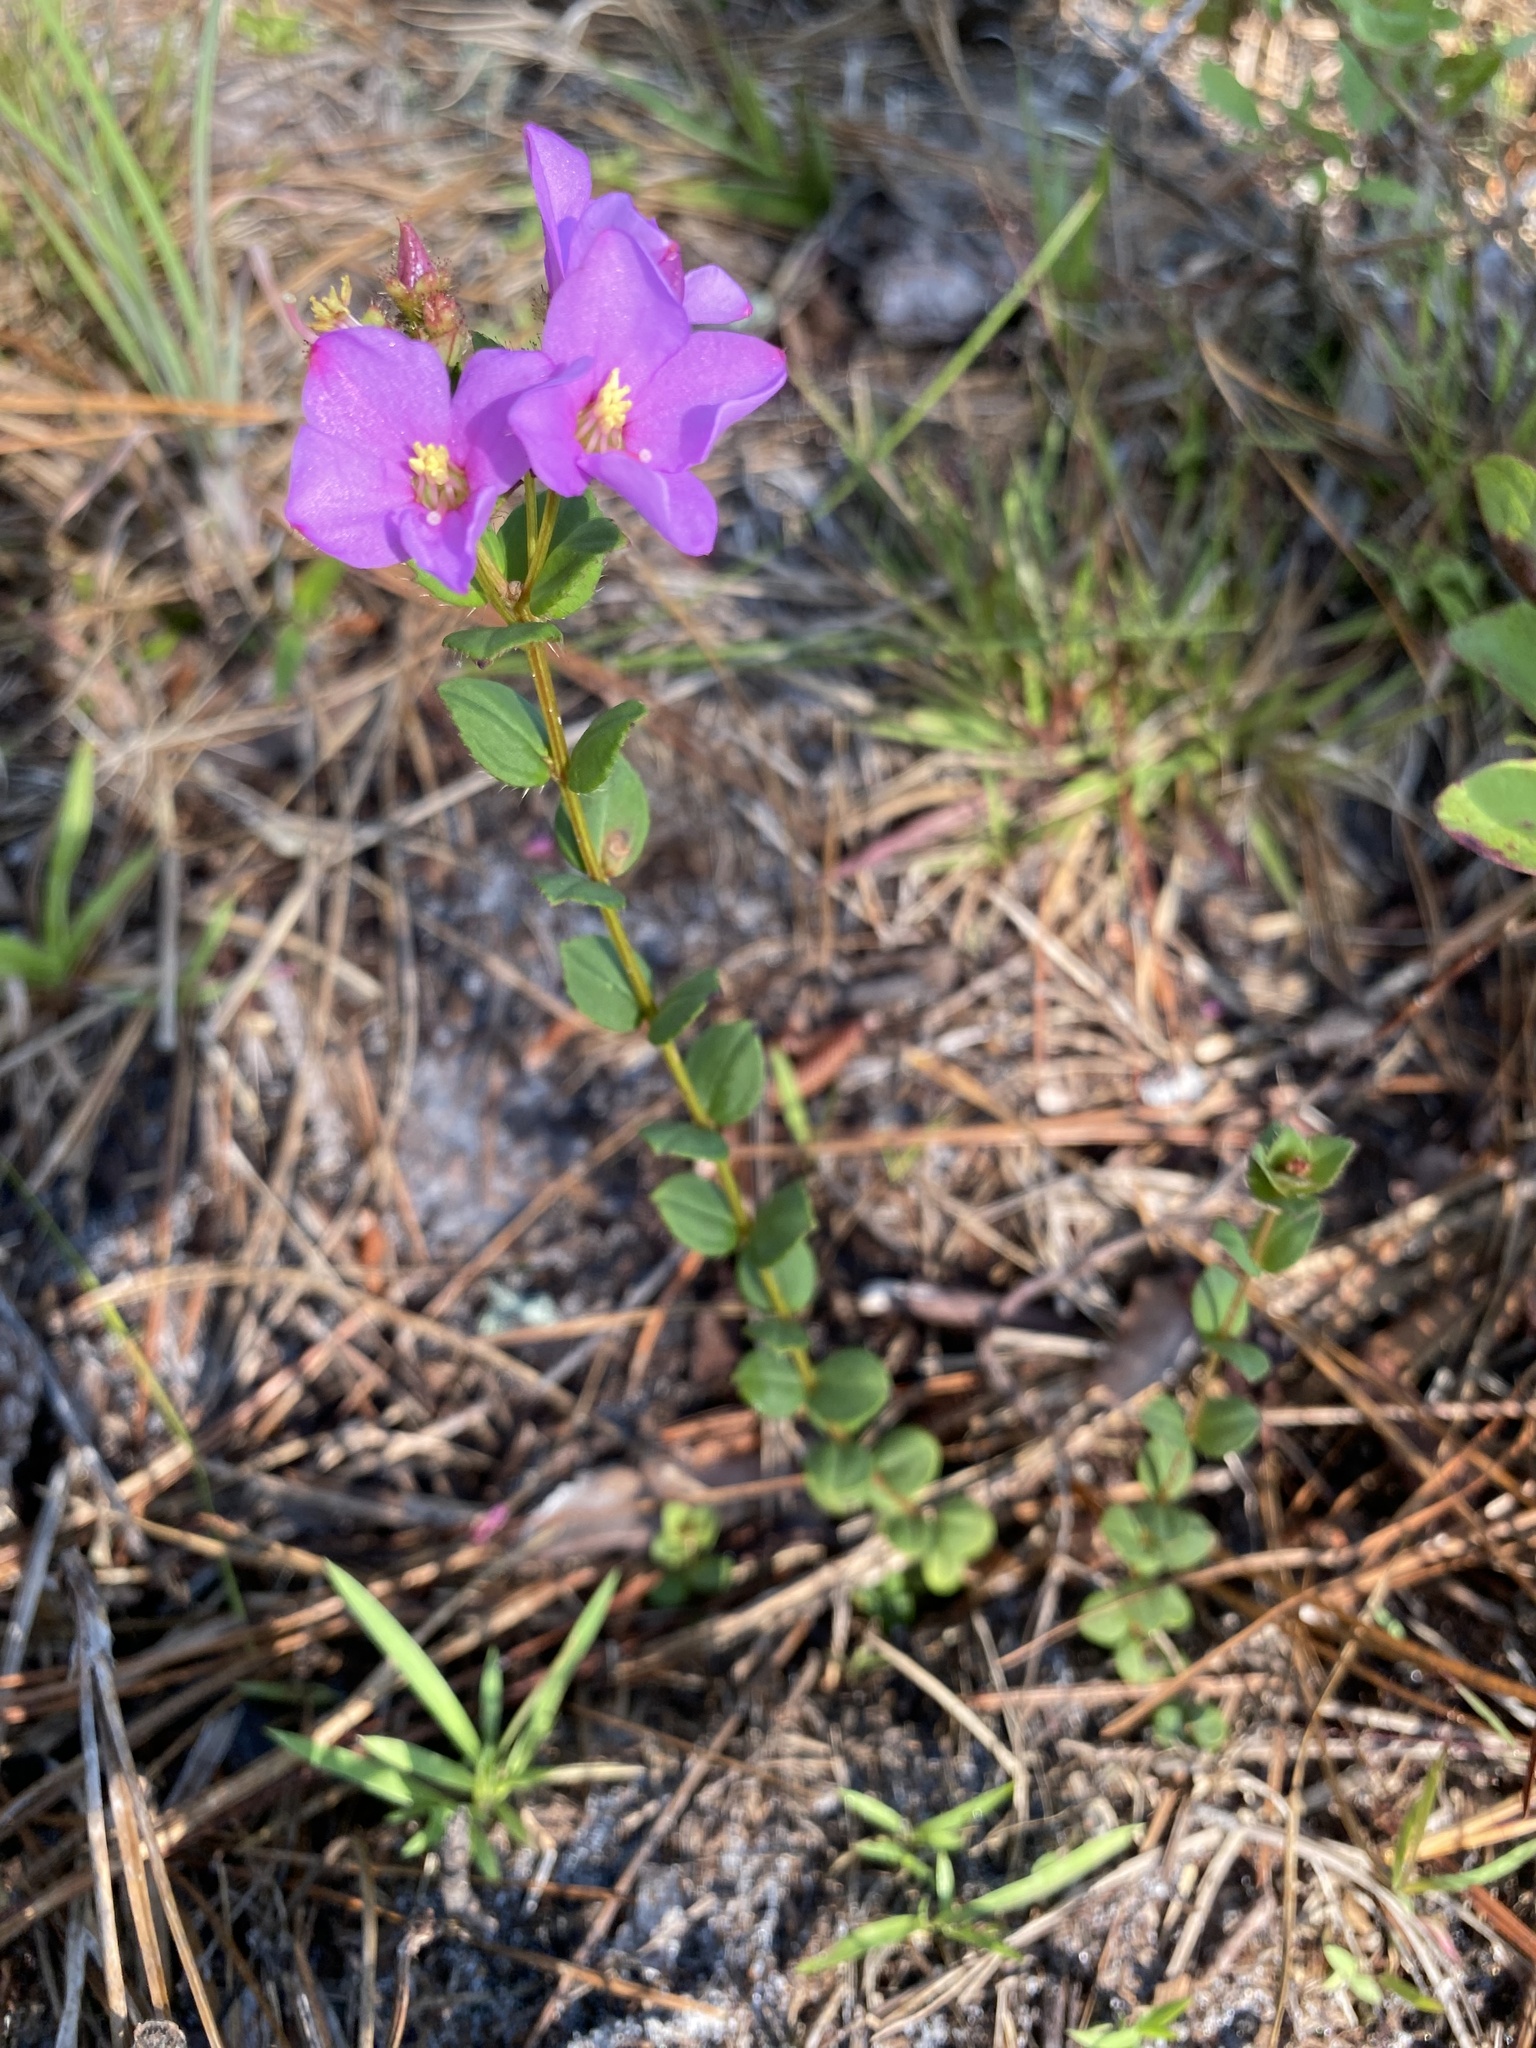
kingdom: Plantae
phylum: Tracheophyta
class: Magnoliopsida
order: Myrtales
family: Melastomataceae
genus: Rhexia
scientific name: Rhexia nuttallii
